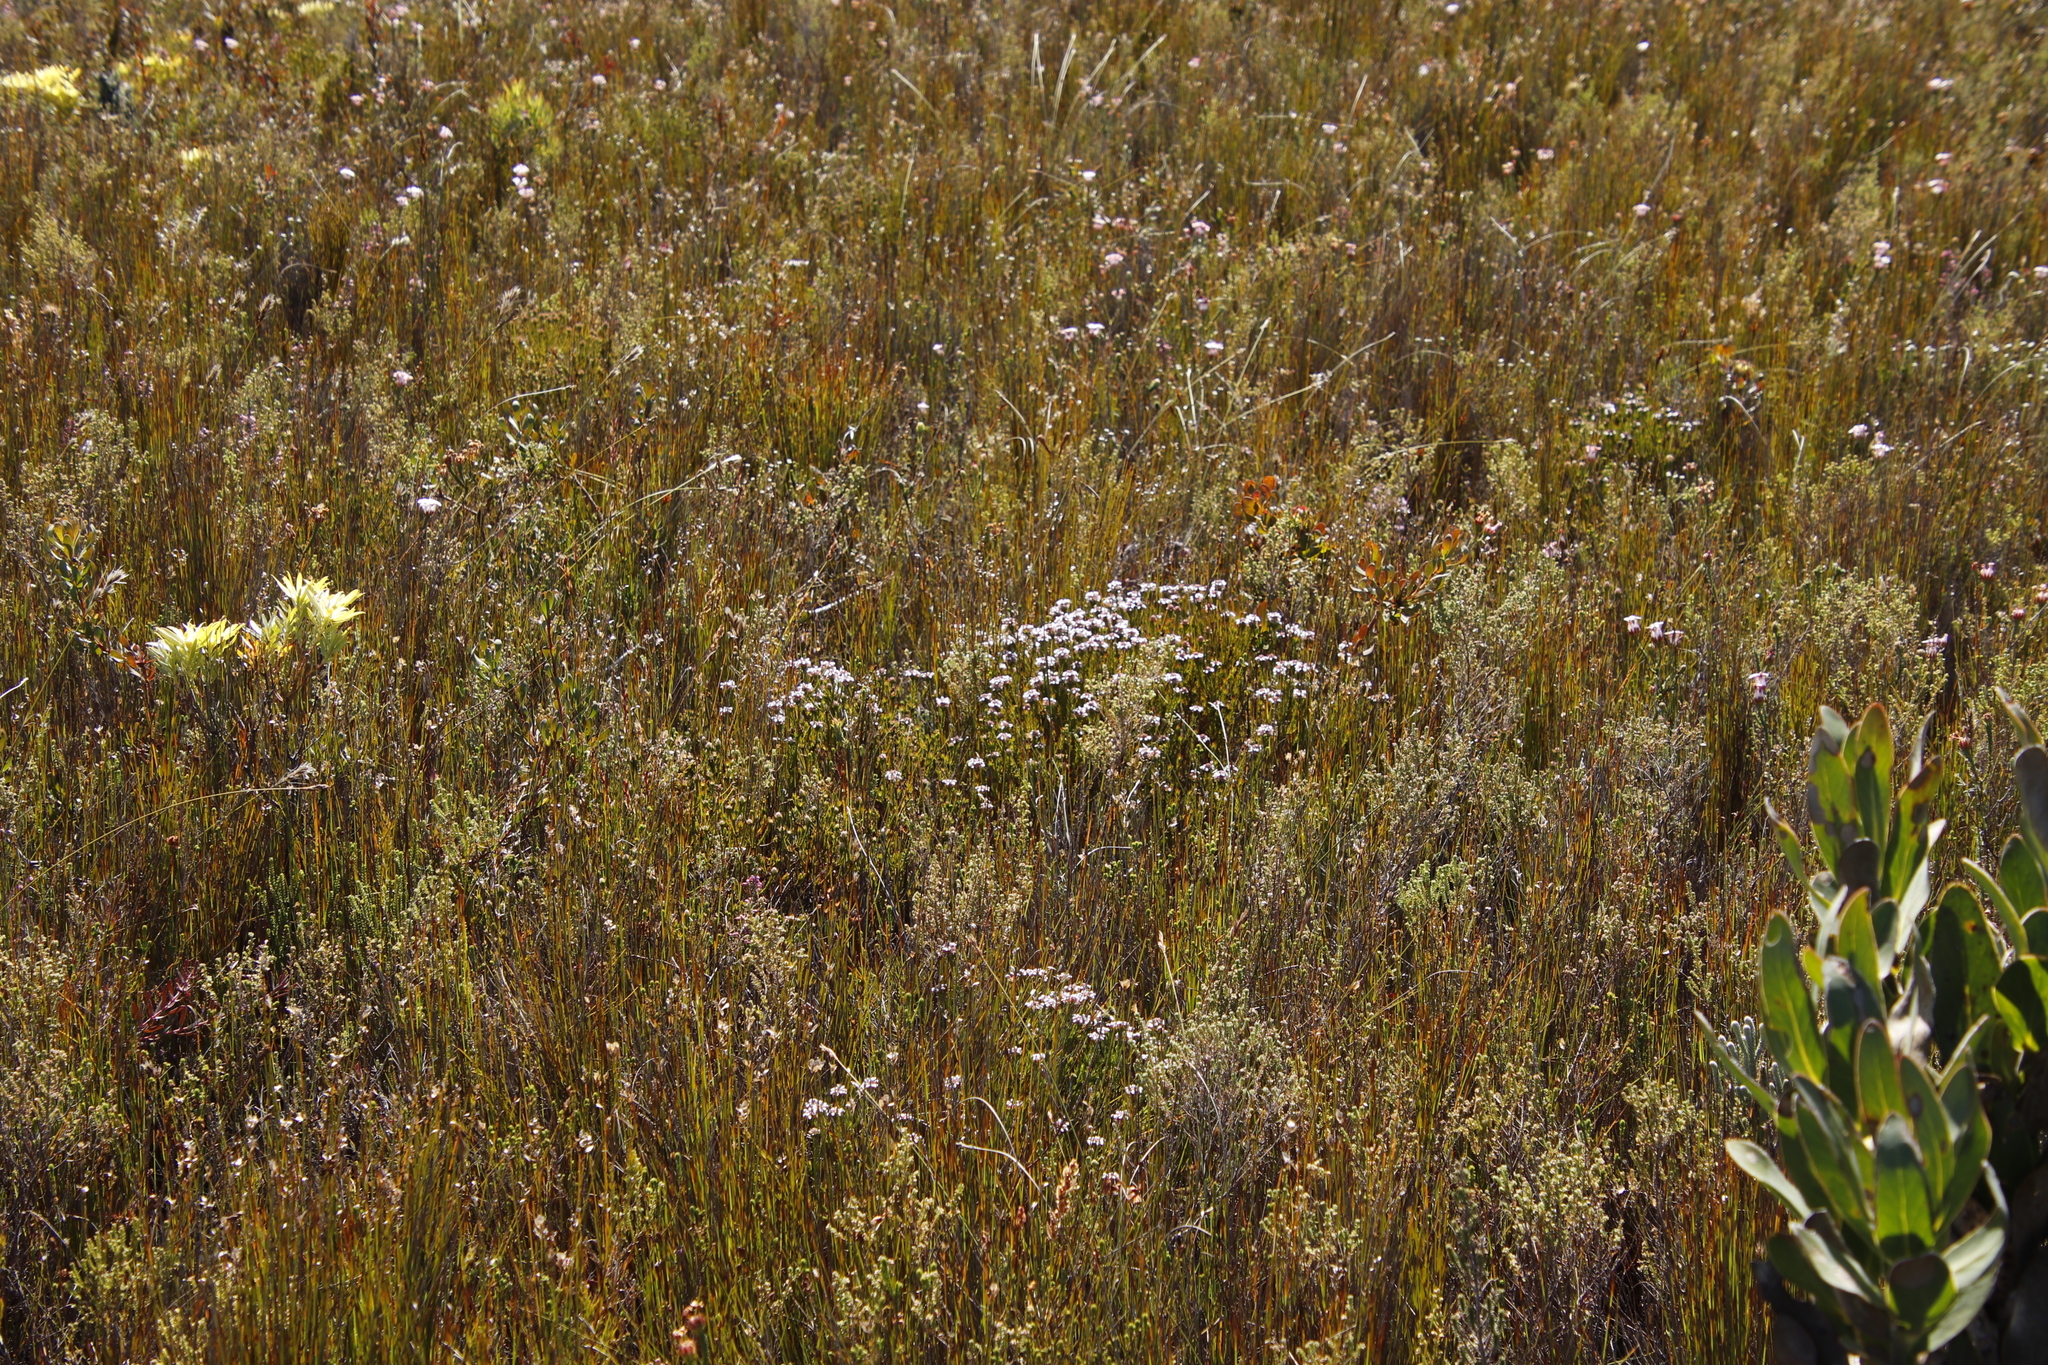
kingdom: Plantae
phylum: Tracheophyta
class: Magnoliopsida
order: Proteales
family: Proteaceae
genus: Spatalla
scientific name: Spatalla squamata
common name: Silky spoon
